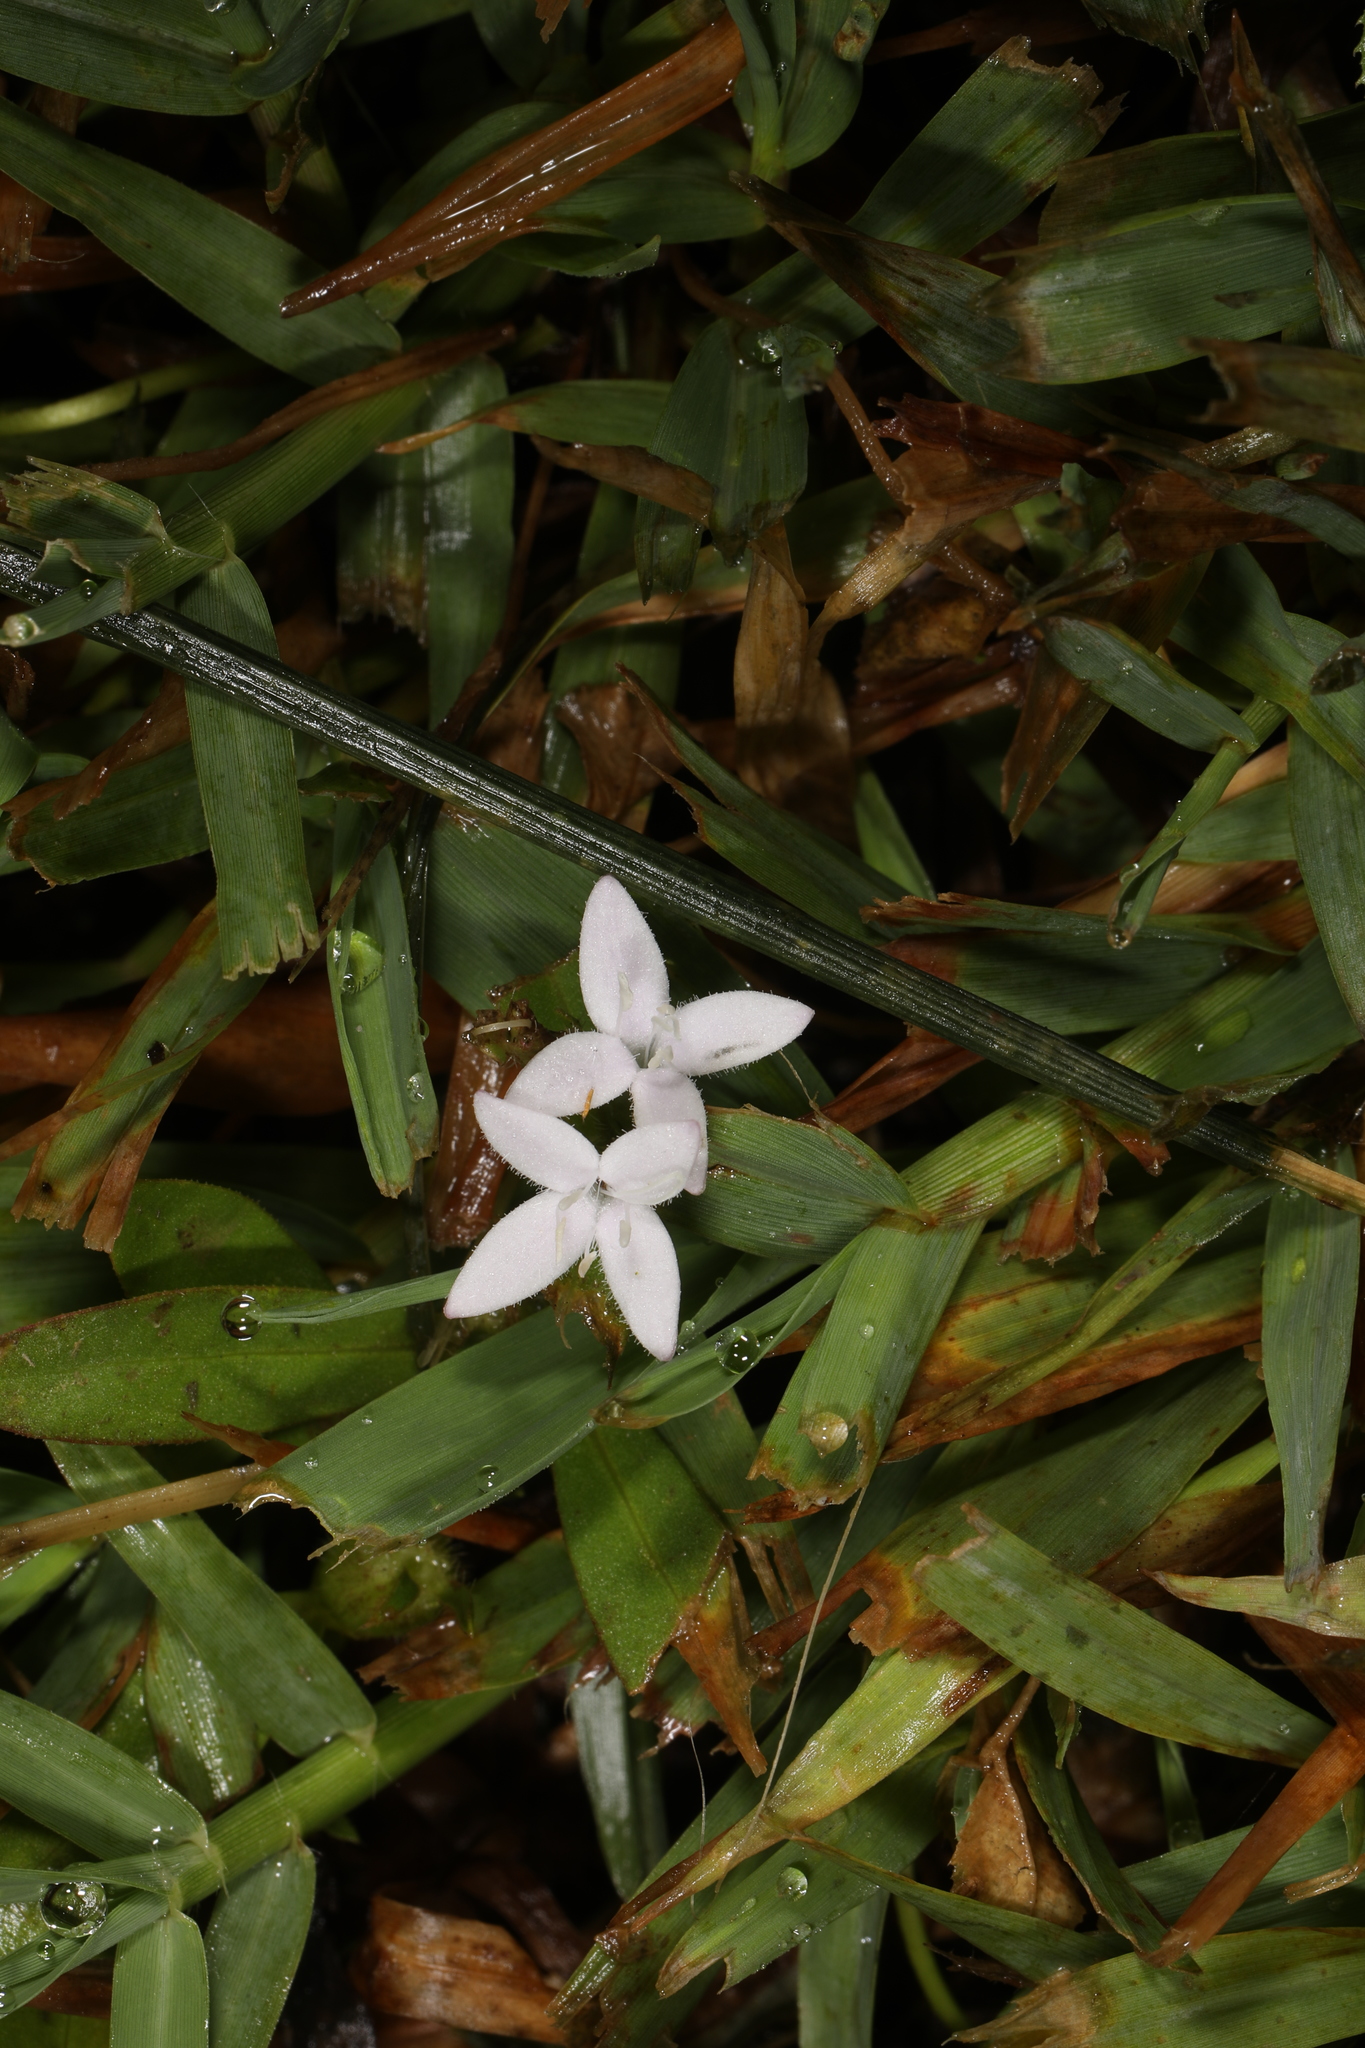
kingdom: Plantae
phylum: Tracheophyta
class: Magnoliopsida
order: Gentianales
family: Rubiaceae
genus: Diodia
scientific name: Diodia virginiana
